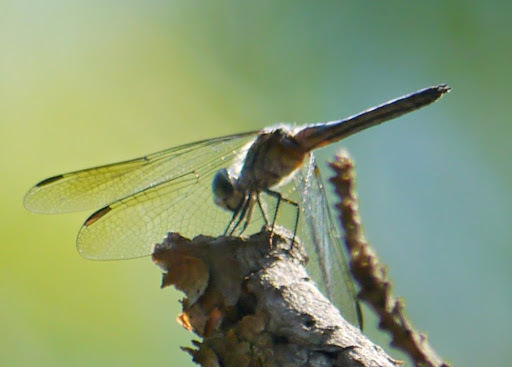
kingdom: Animalia
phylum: Arthropoda
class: Insecta
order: Odonata
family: Libellulidae
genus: Pachydiplax
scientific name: Pachydiplax longipennis
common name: Blue dasher
